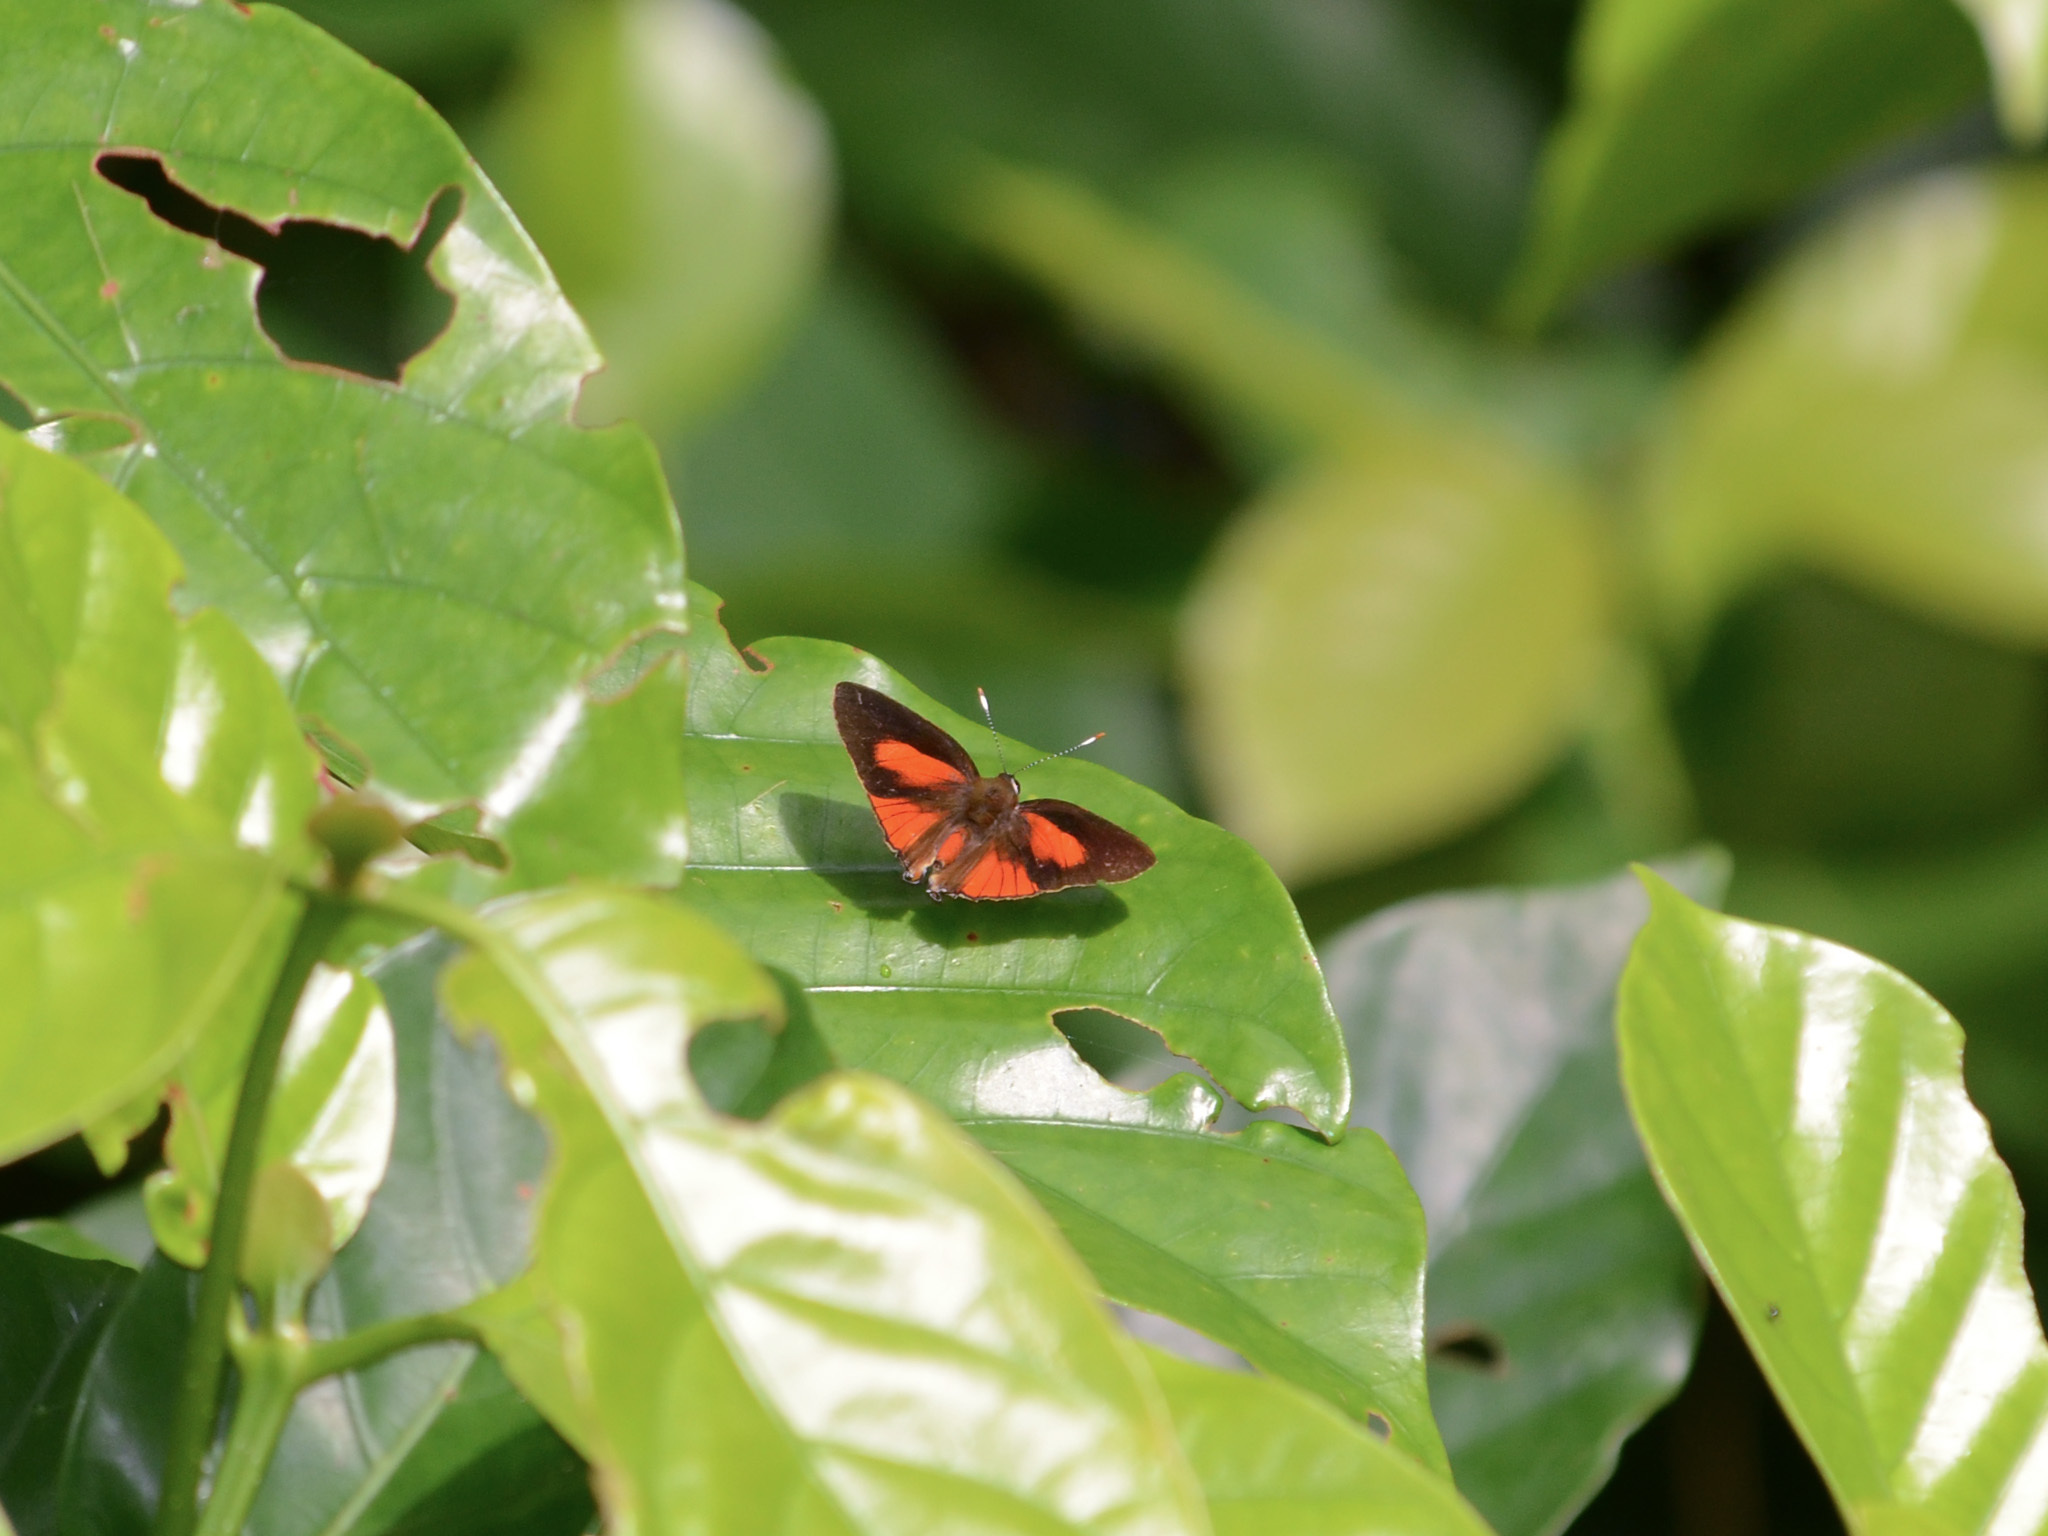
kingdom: Animalia
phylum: Arthropoda
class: Insecta
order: Lepidoptera
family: Lycaenidae
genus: Deudorix
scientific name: Deudorix epijarbas
